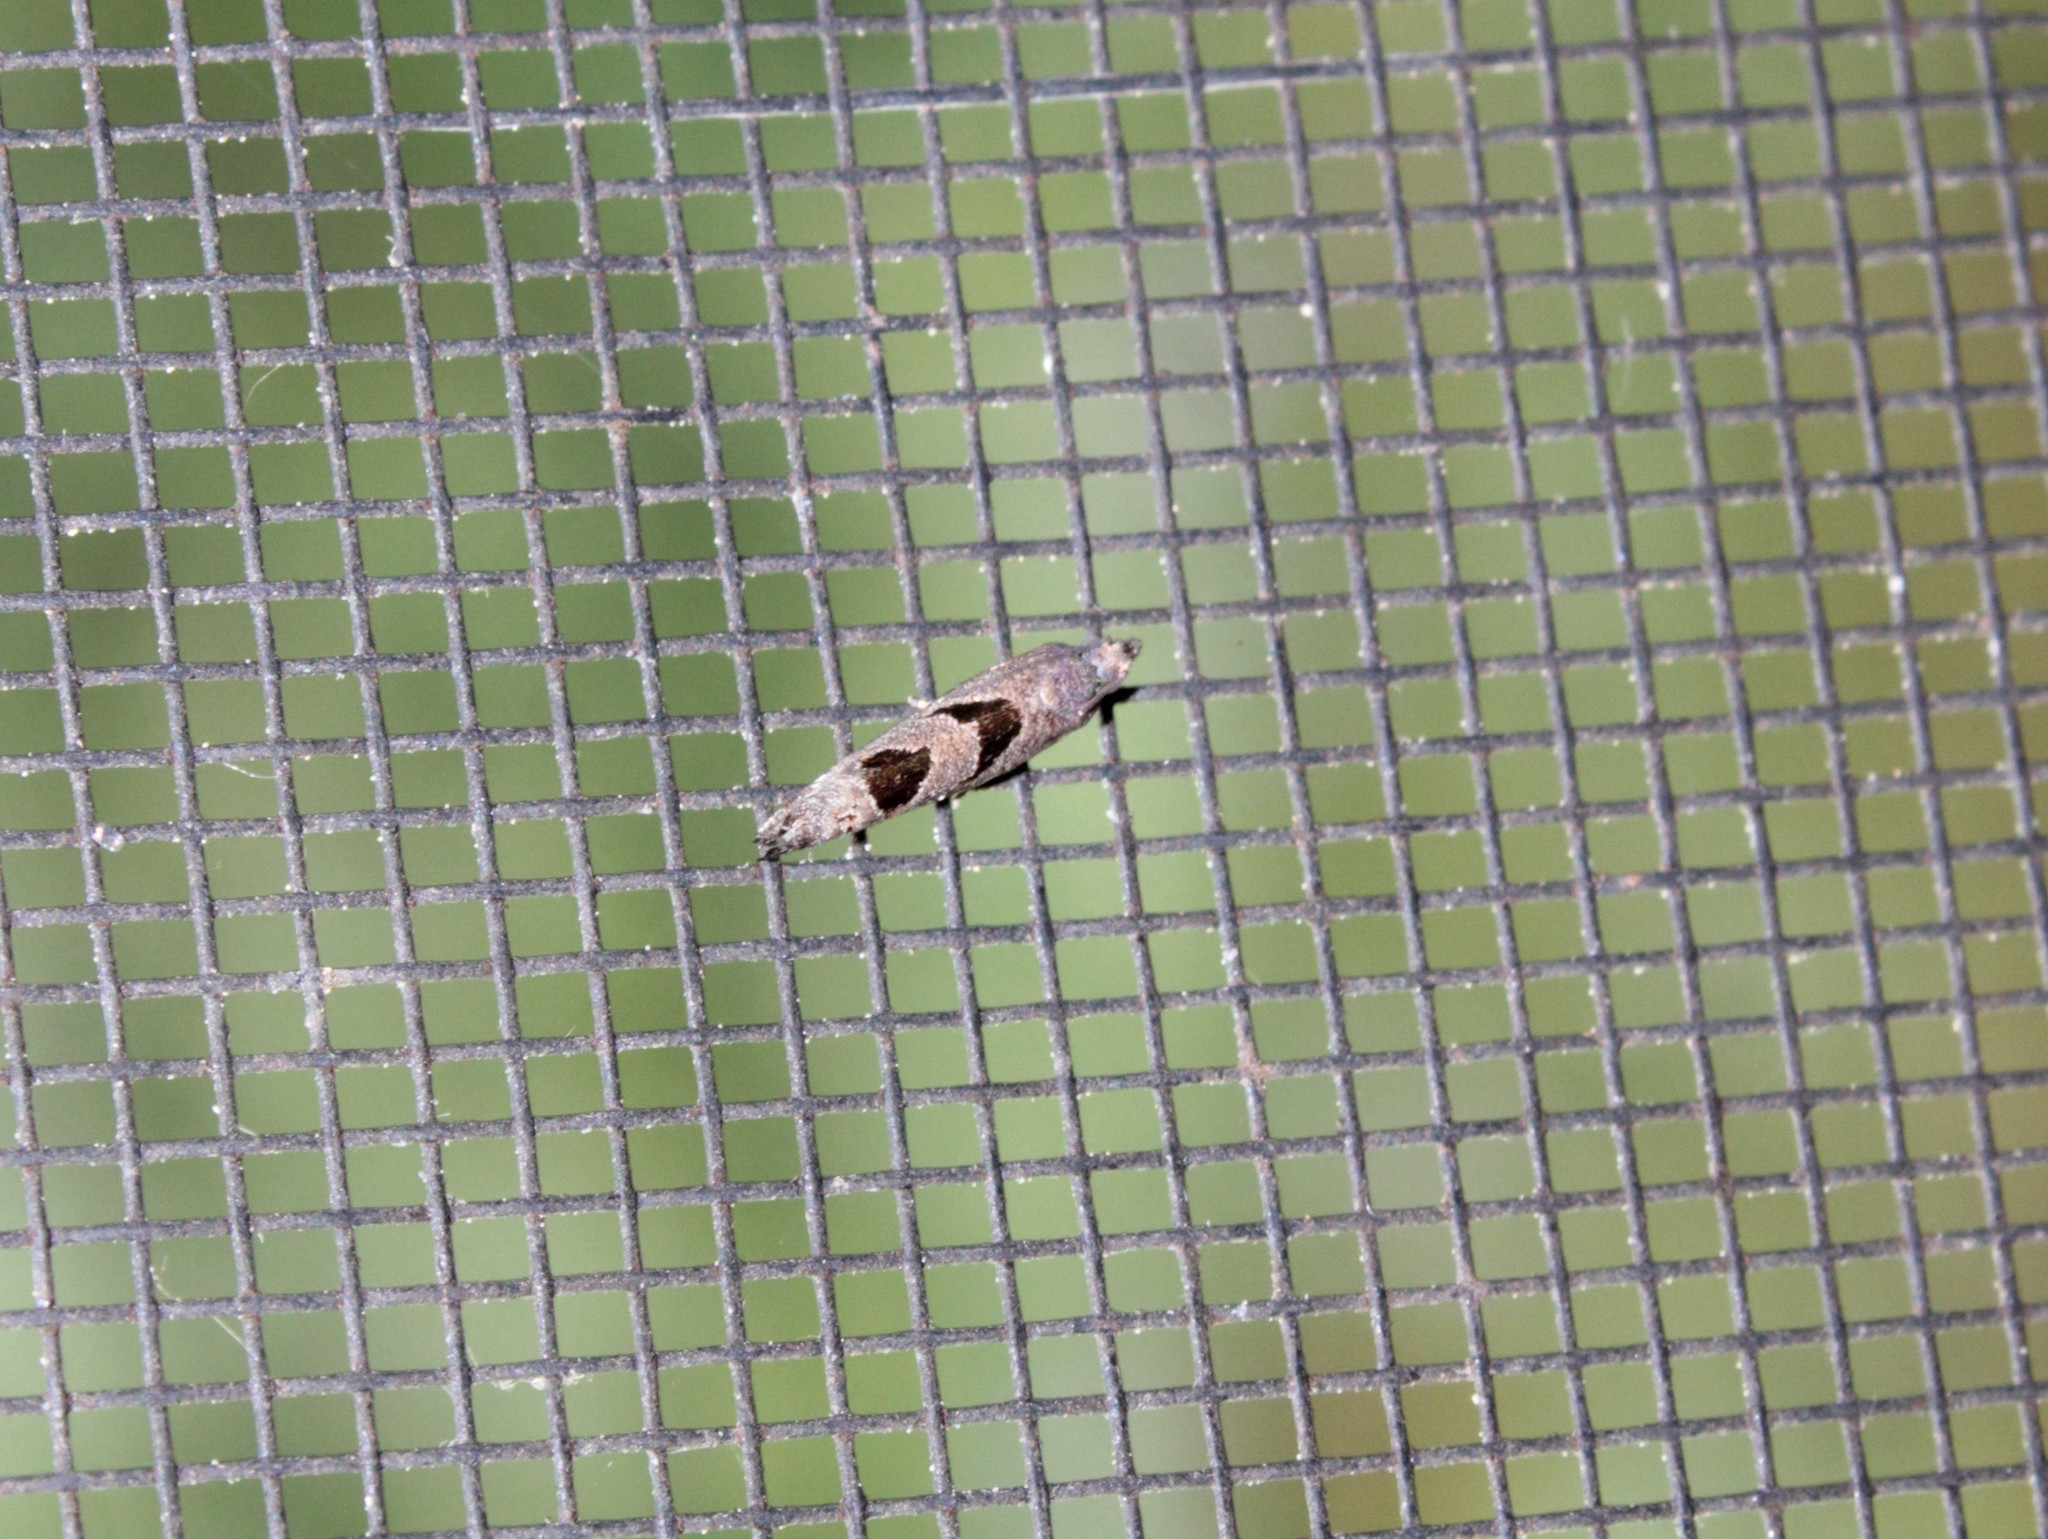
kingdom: Animalia
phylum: Arthropoda
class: Insecta
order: Lepidoptera
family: Tortricidae
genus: Eucosma
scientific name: Eucosma tomonana
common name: Aster-head eucosma moth
